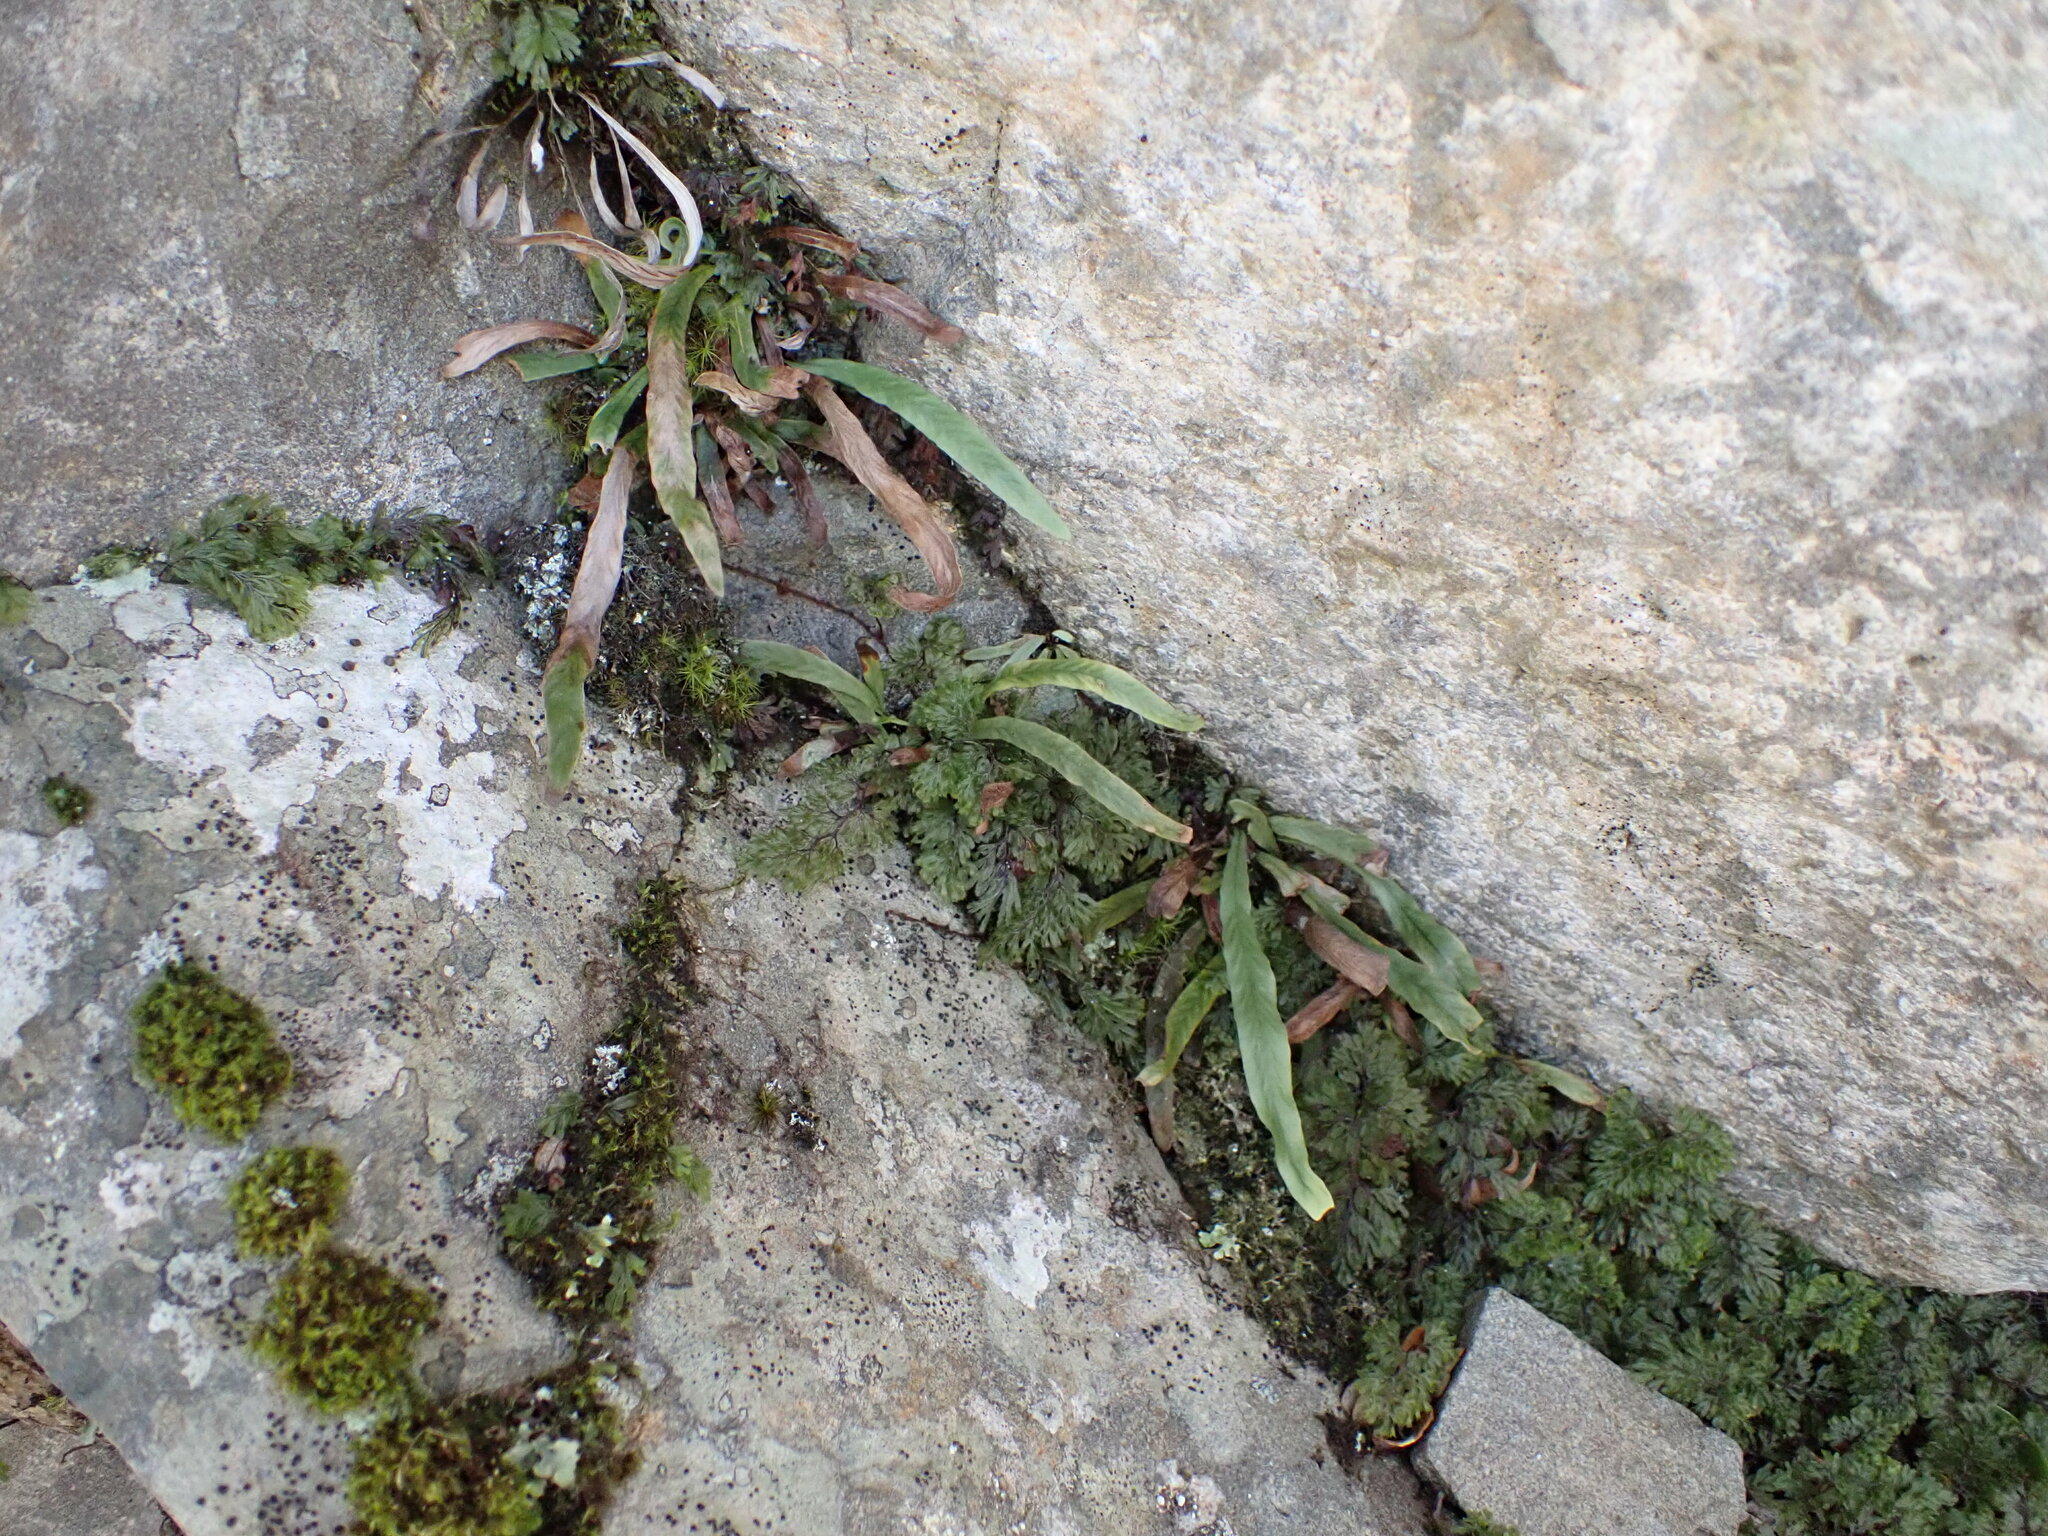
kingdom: Plantae
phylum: Tracheophyta
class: Polypodiopsida
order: Polypodiales
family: Polypodiaceae
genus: Notogrammitis
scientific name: Notogrammitis billardierei
